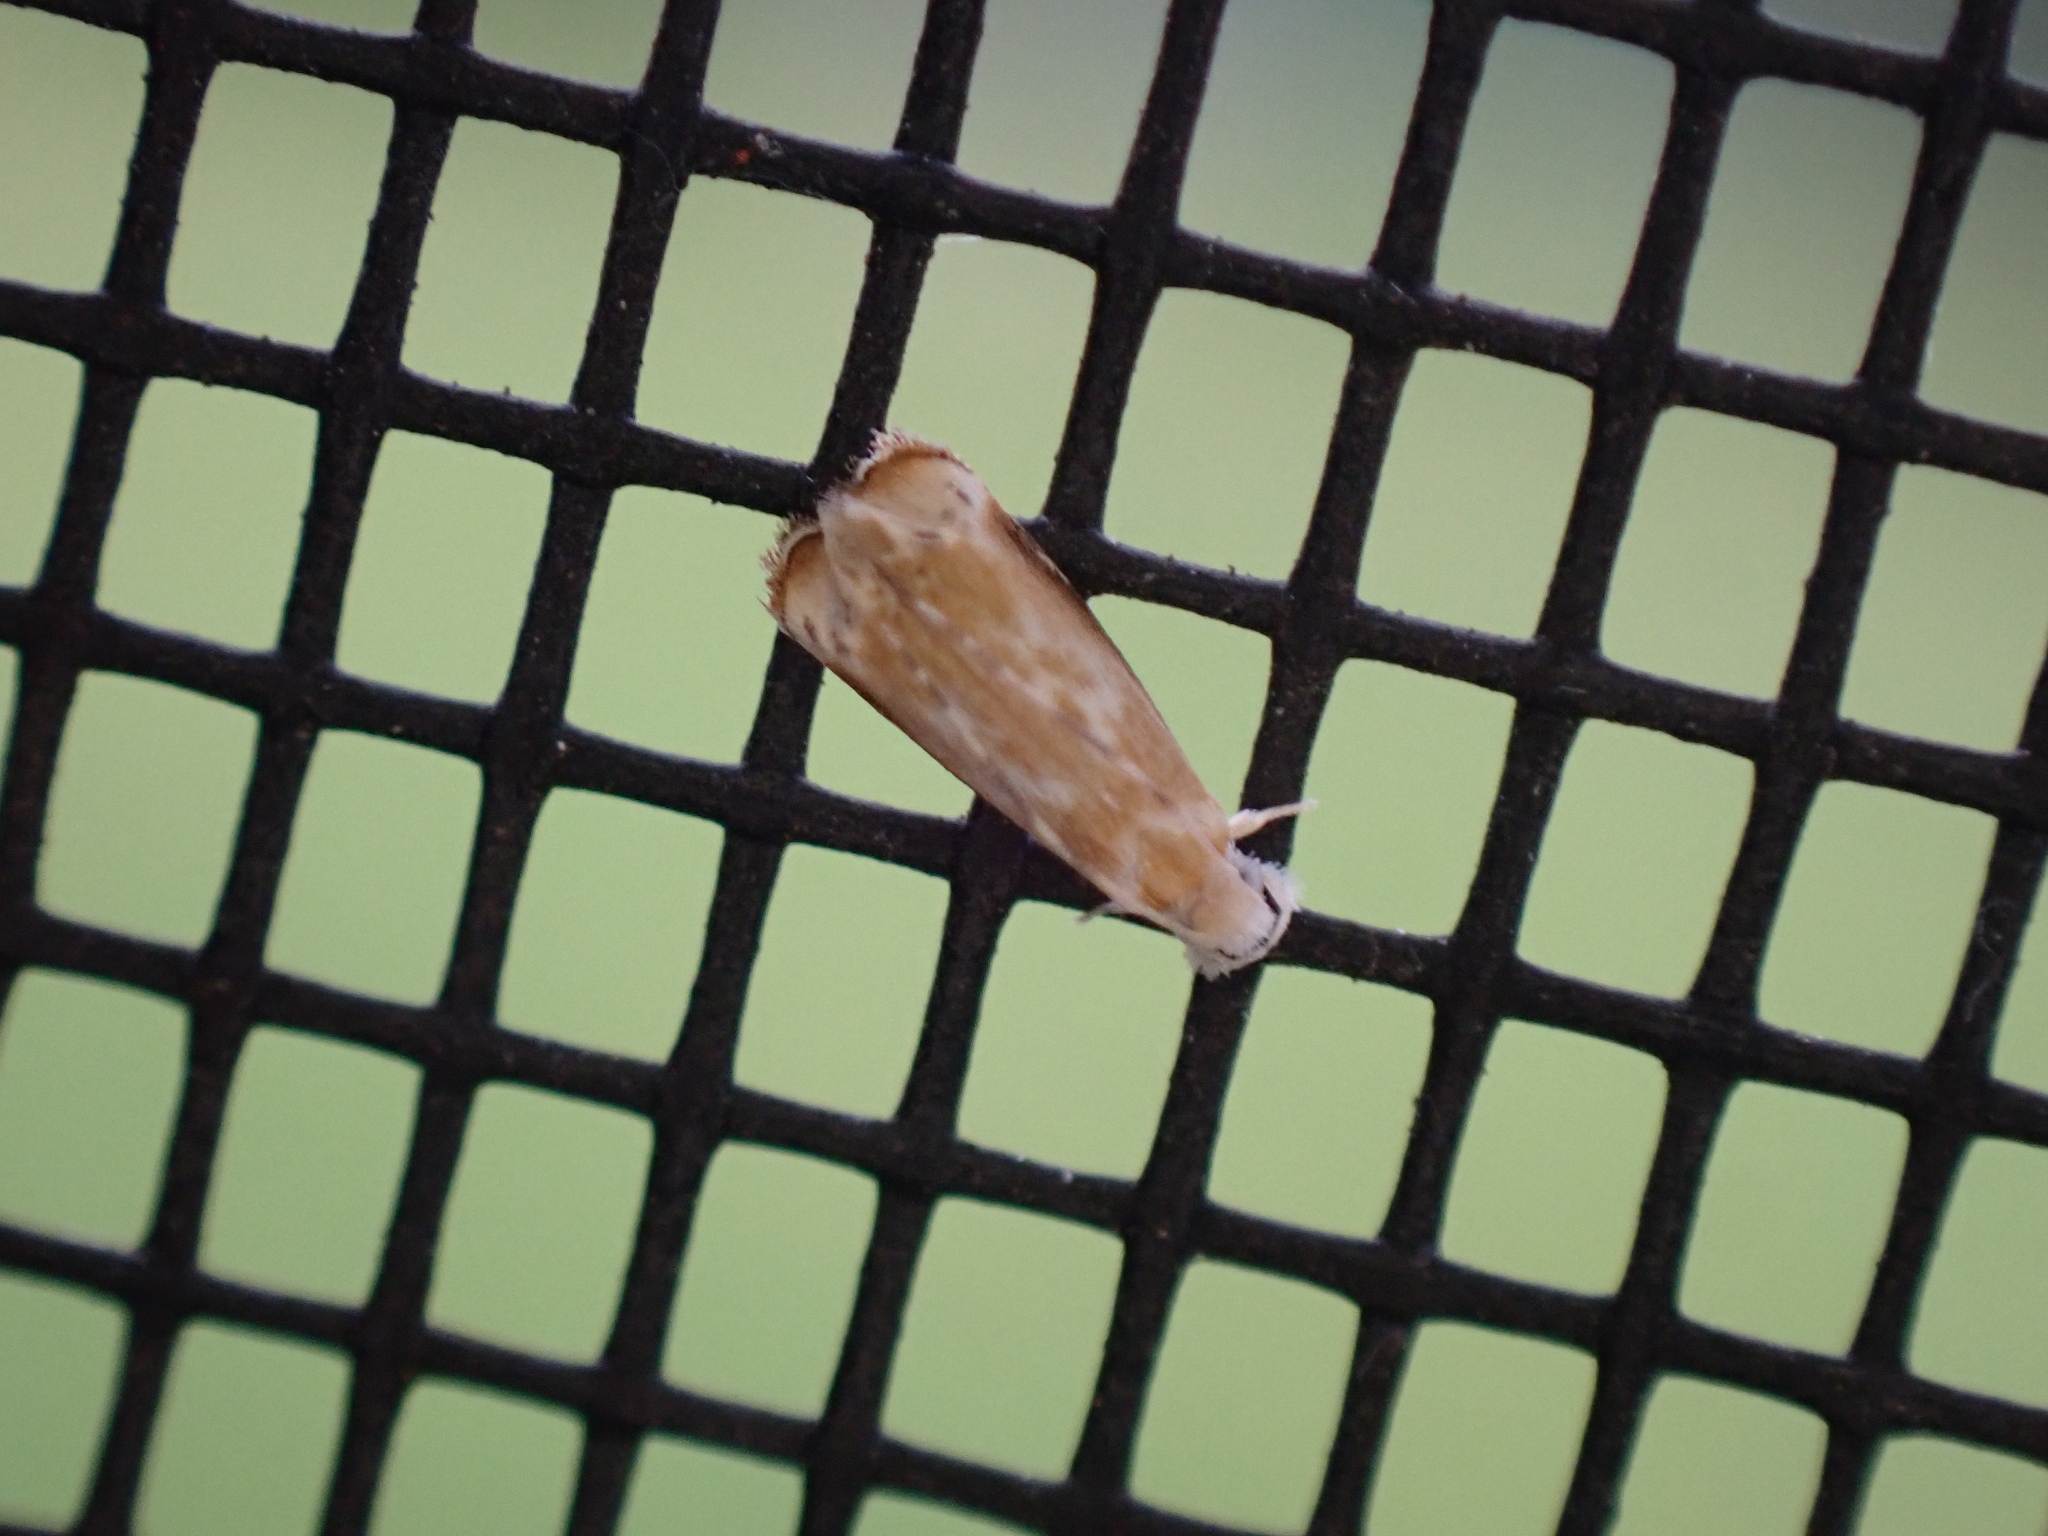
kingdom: Animalia
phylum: Arthropoda
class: Insecta
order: Lepidoptera
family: Dryadaulidae
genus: Dryadaula
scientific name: Dryadaula terpsichorella
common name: Dancing moth
